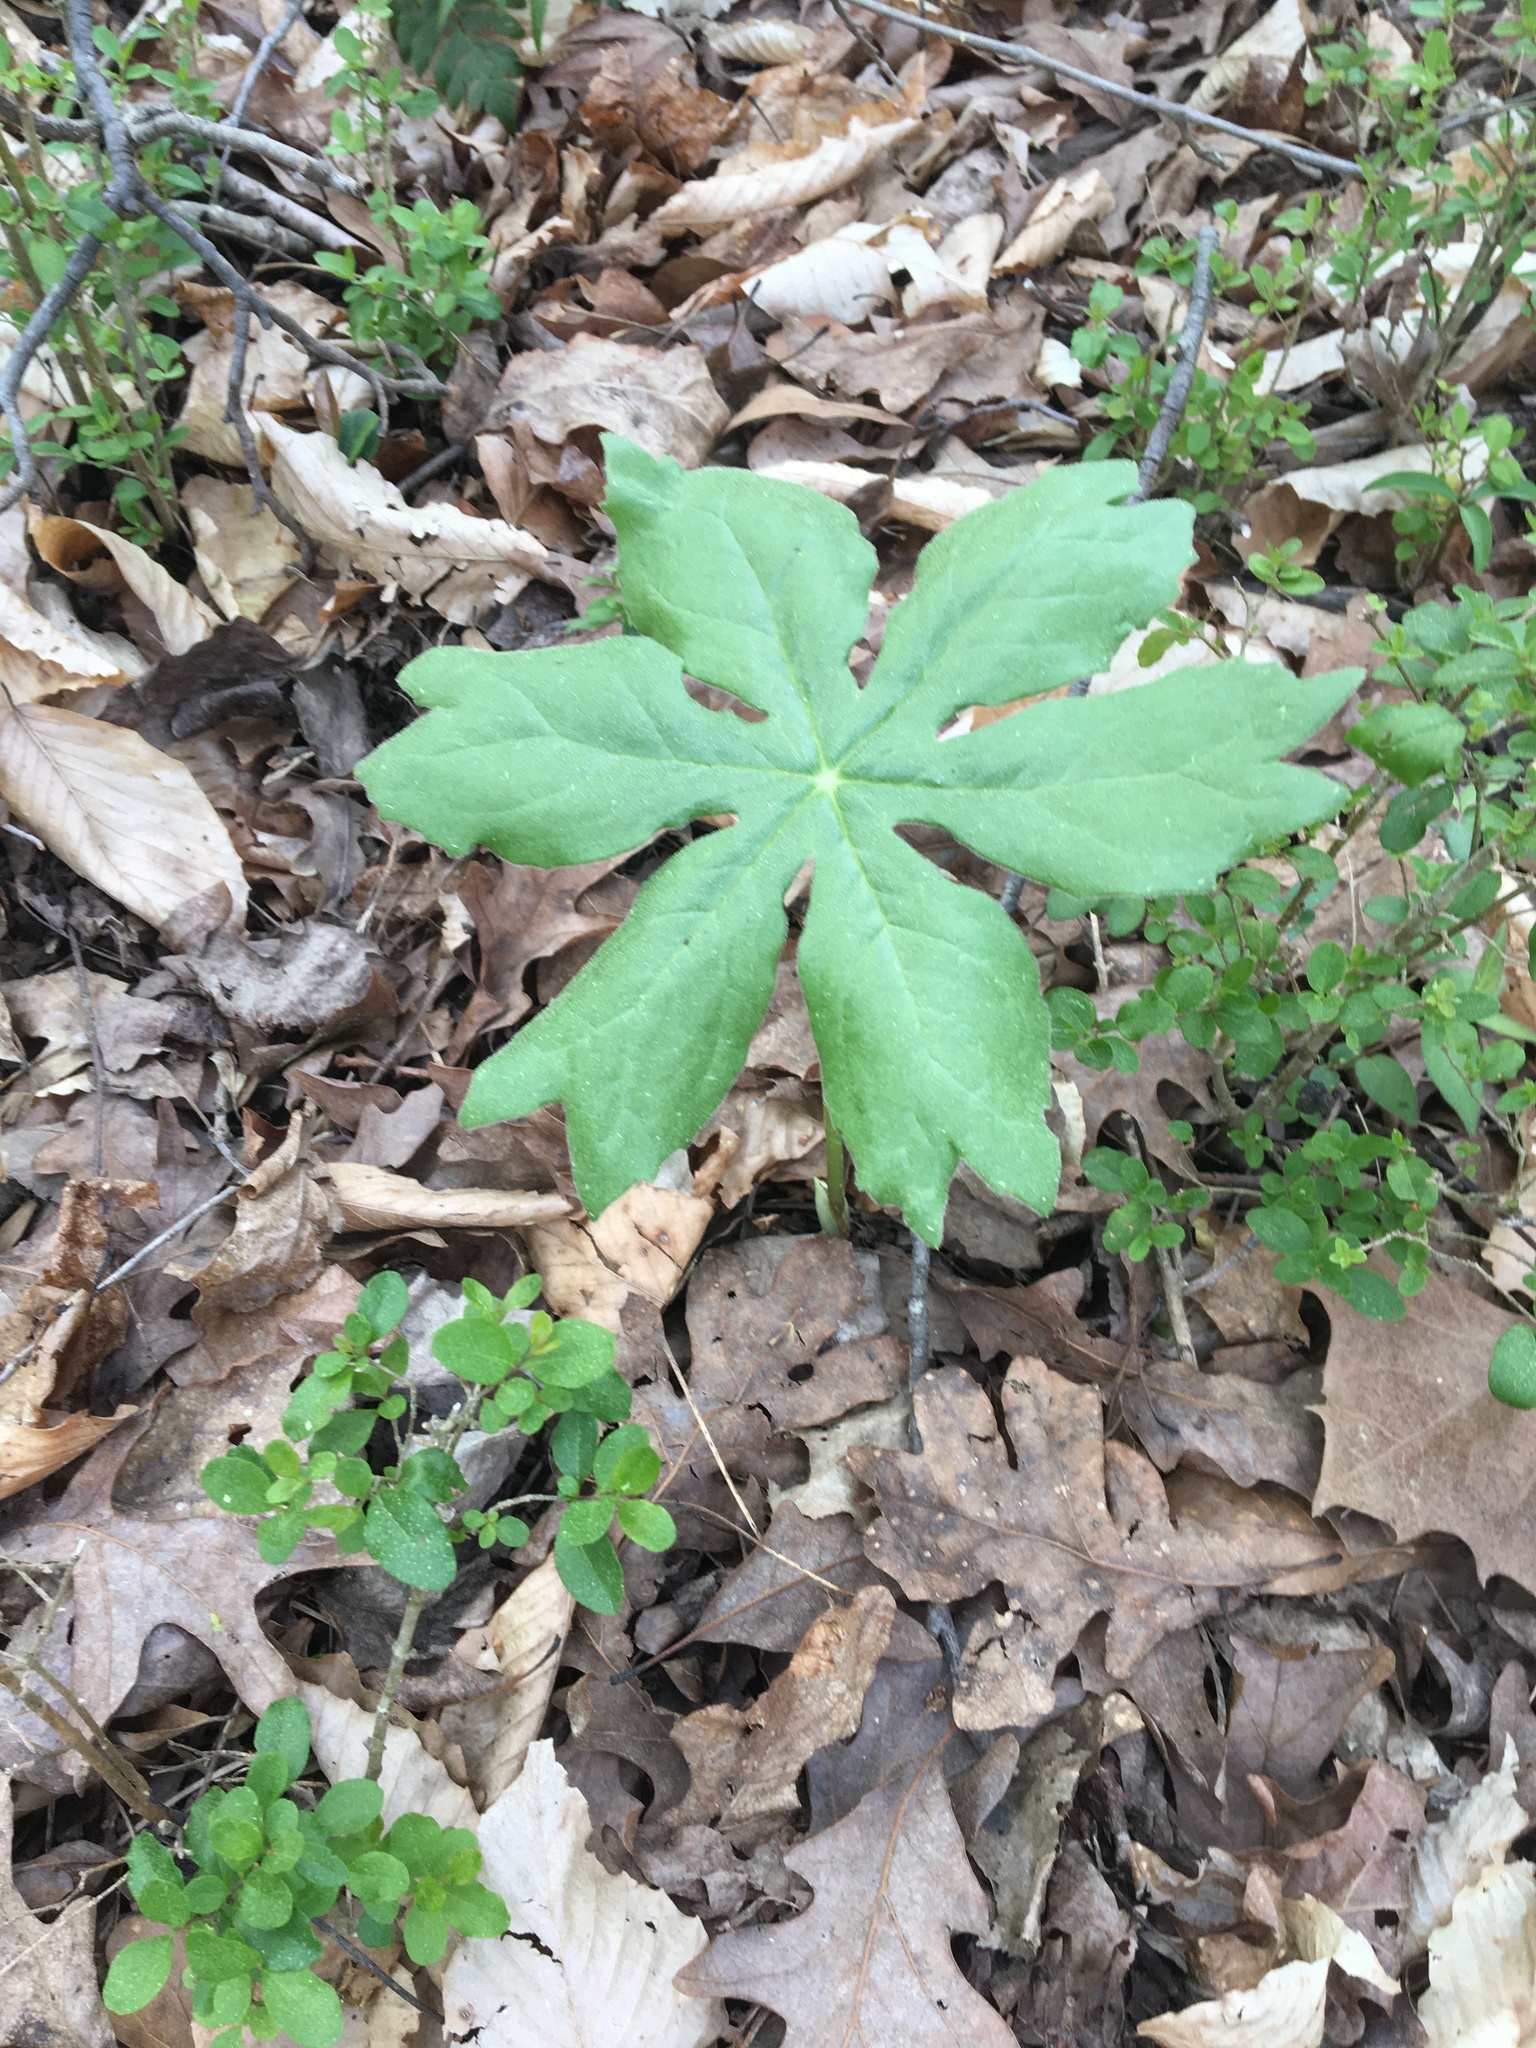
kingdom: Plantae
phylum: Tracheophyta
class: Magnoliopsida
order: Ranunculales
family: Berberidaceae
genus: Podophyllum
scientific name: Podophyllum peltatum
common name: Wild mandrake
